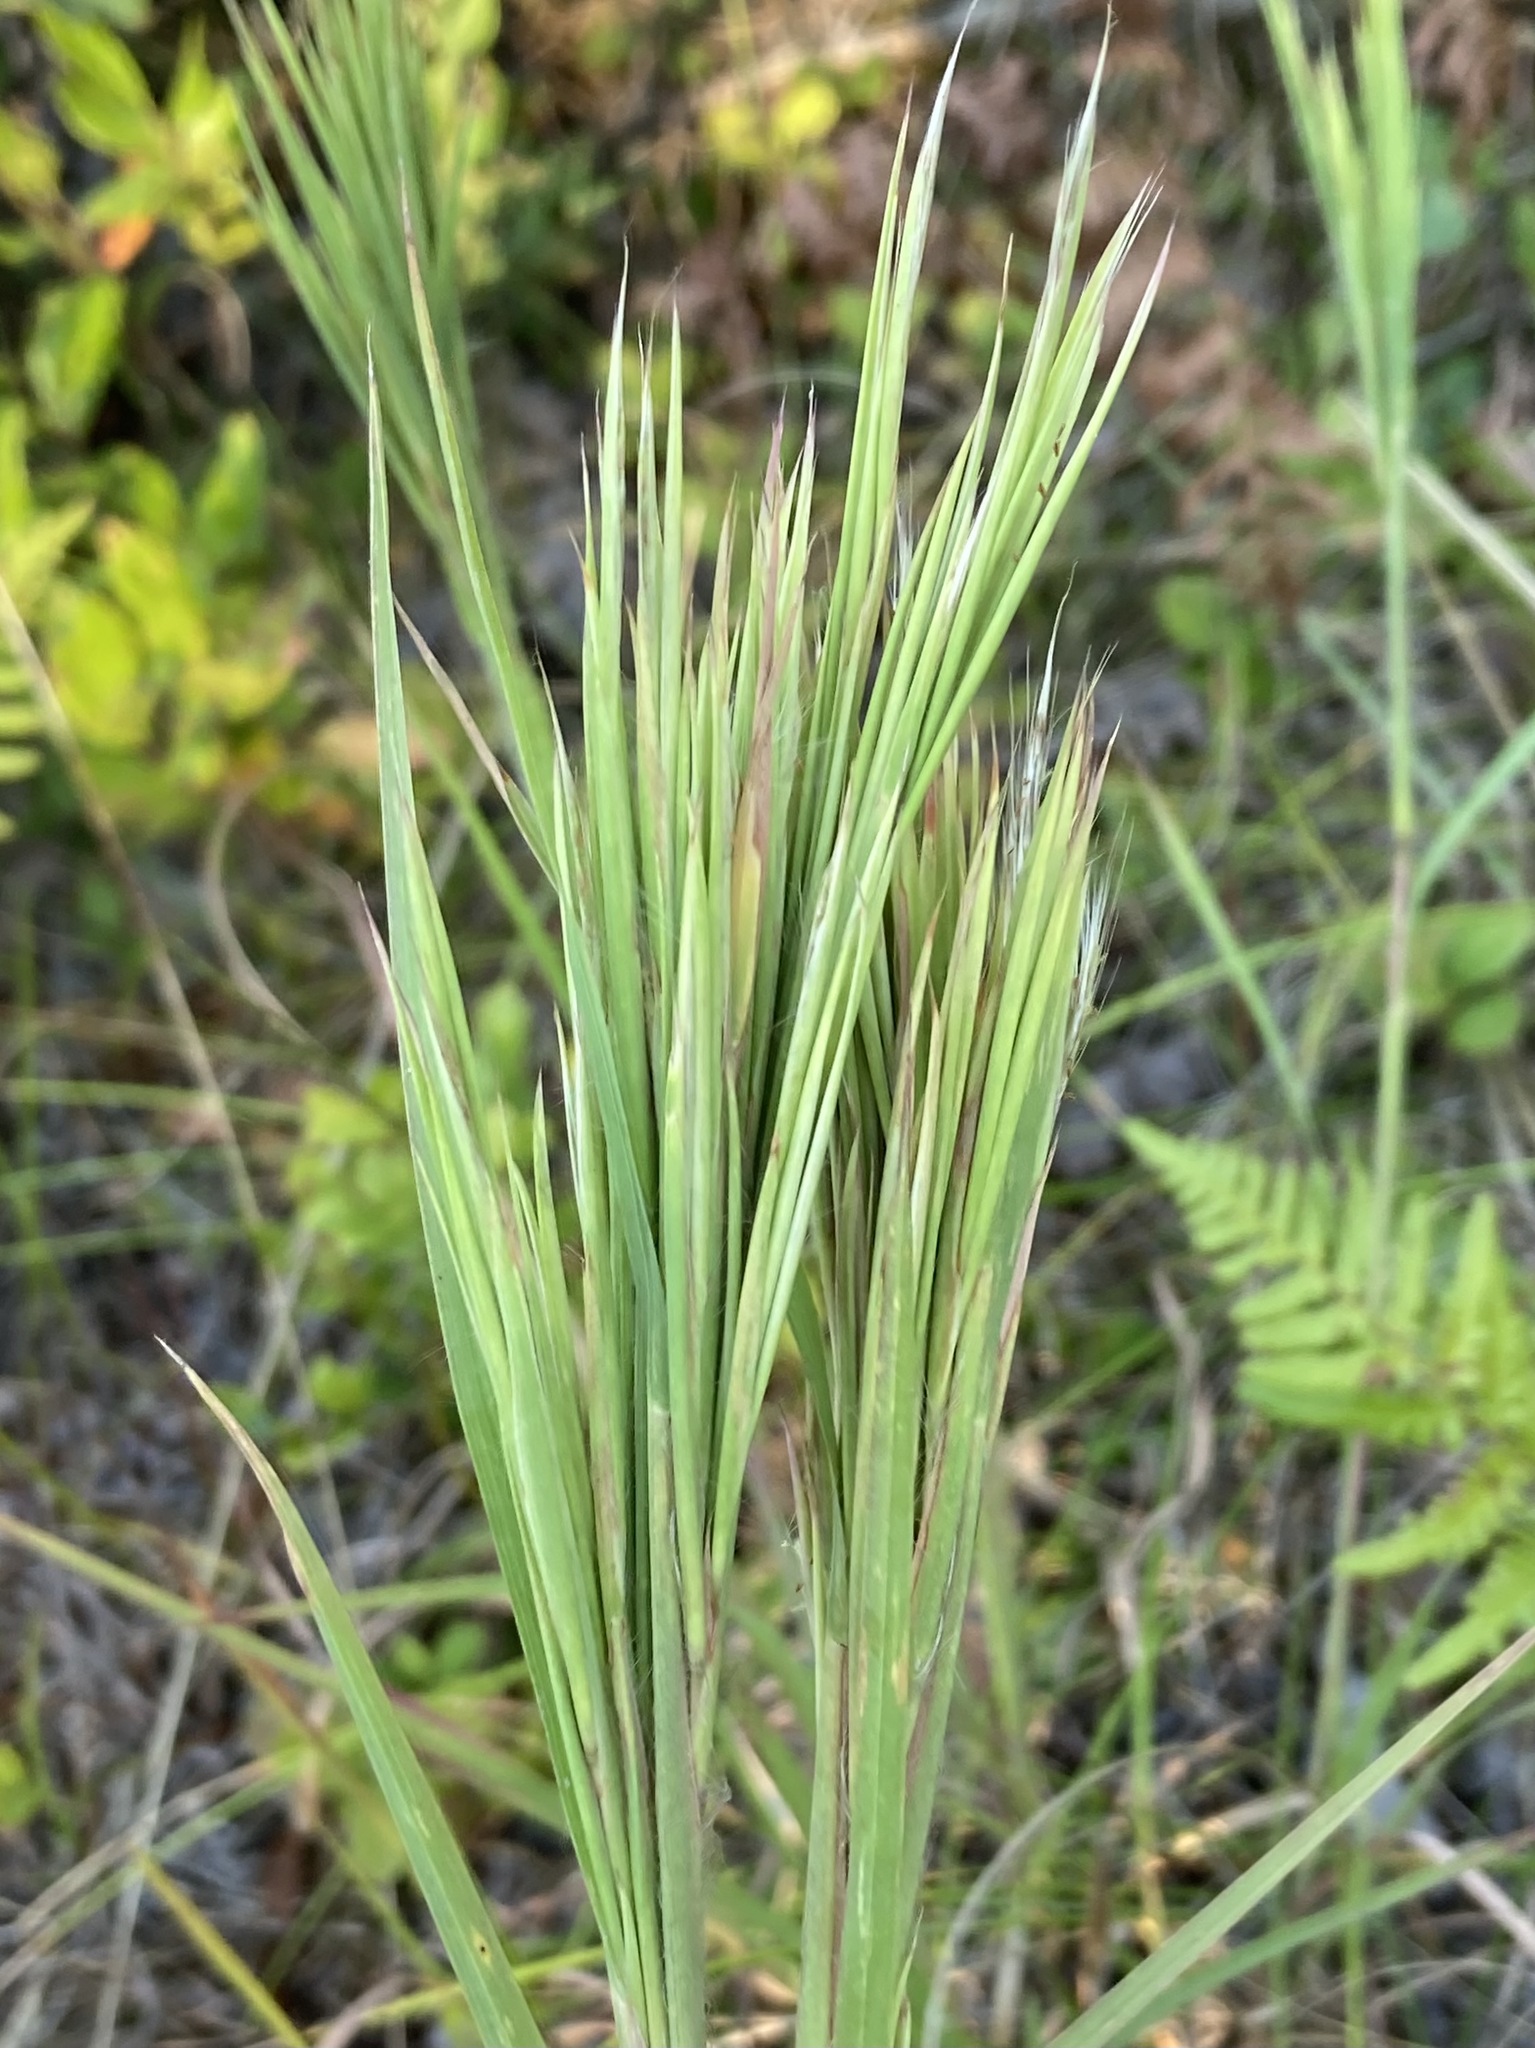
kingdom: Plantae
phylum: Tracheophyta
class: Liliopsida
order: Poales
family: Poaceae
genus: Andropogon
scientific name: Andropogon glomeratus
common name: Bushy beard grass
